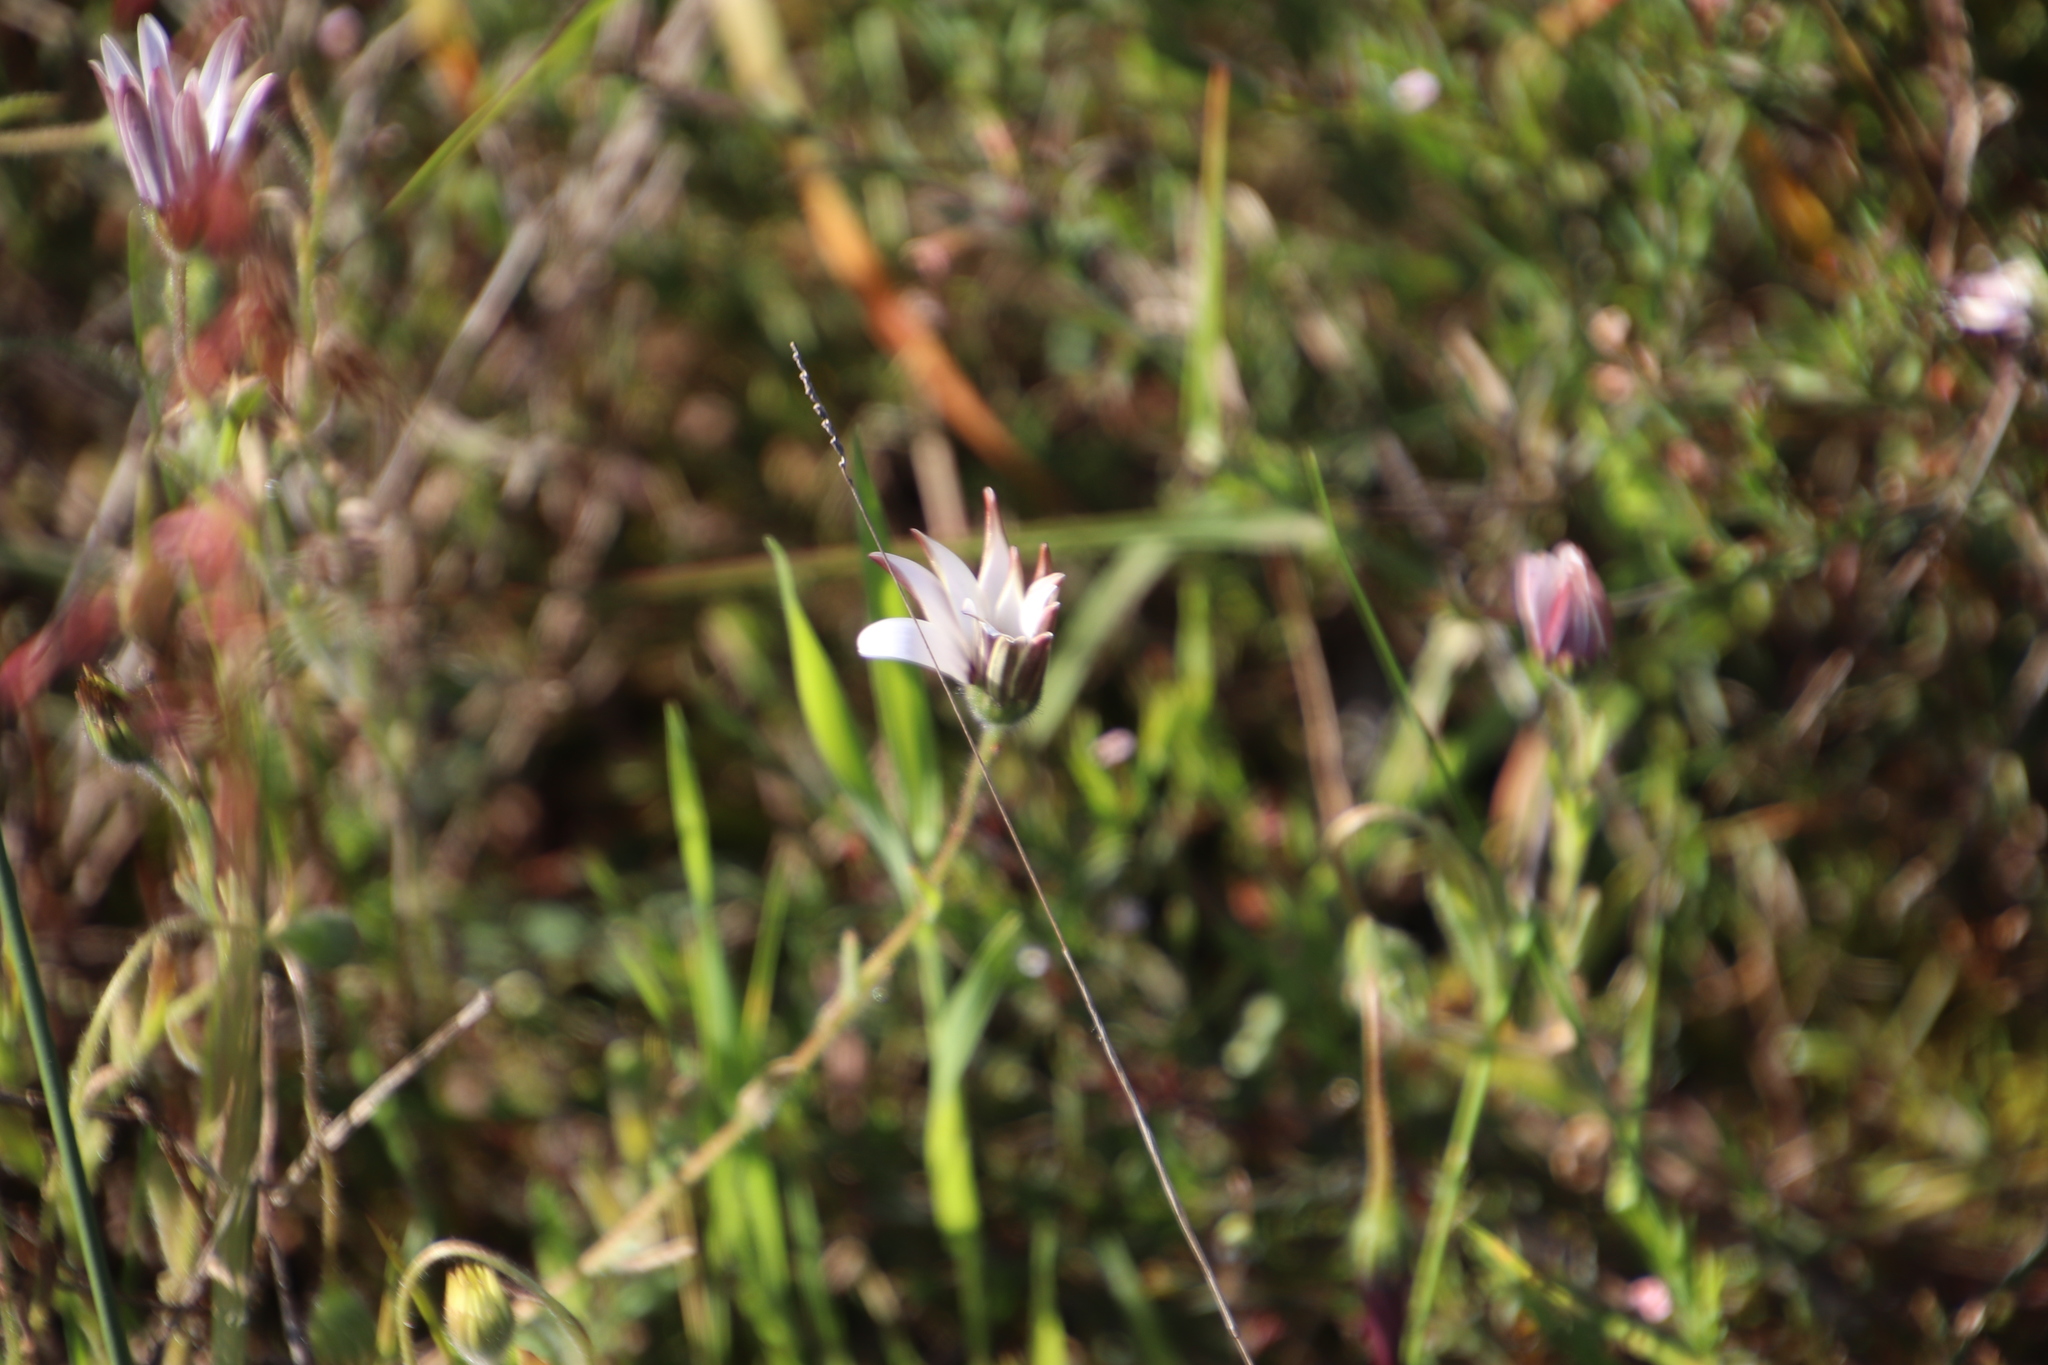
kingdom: Plantae
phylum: Tracheophyta
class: Magnoliopsida
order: Asterales
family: Asteraceae
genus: Dimorphotheca
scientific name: Dimorphotheca pluvialis
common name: Weather prophet
